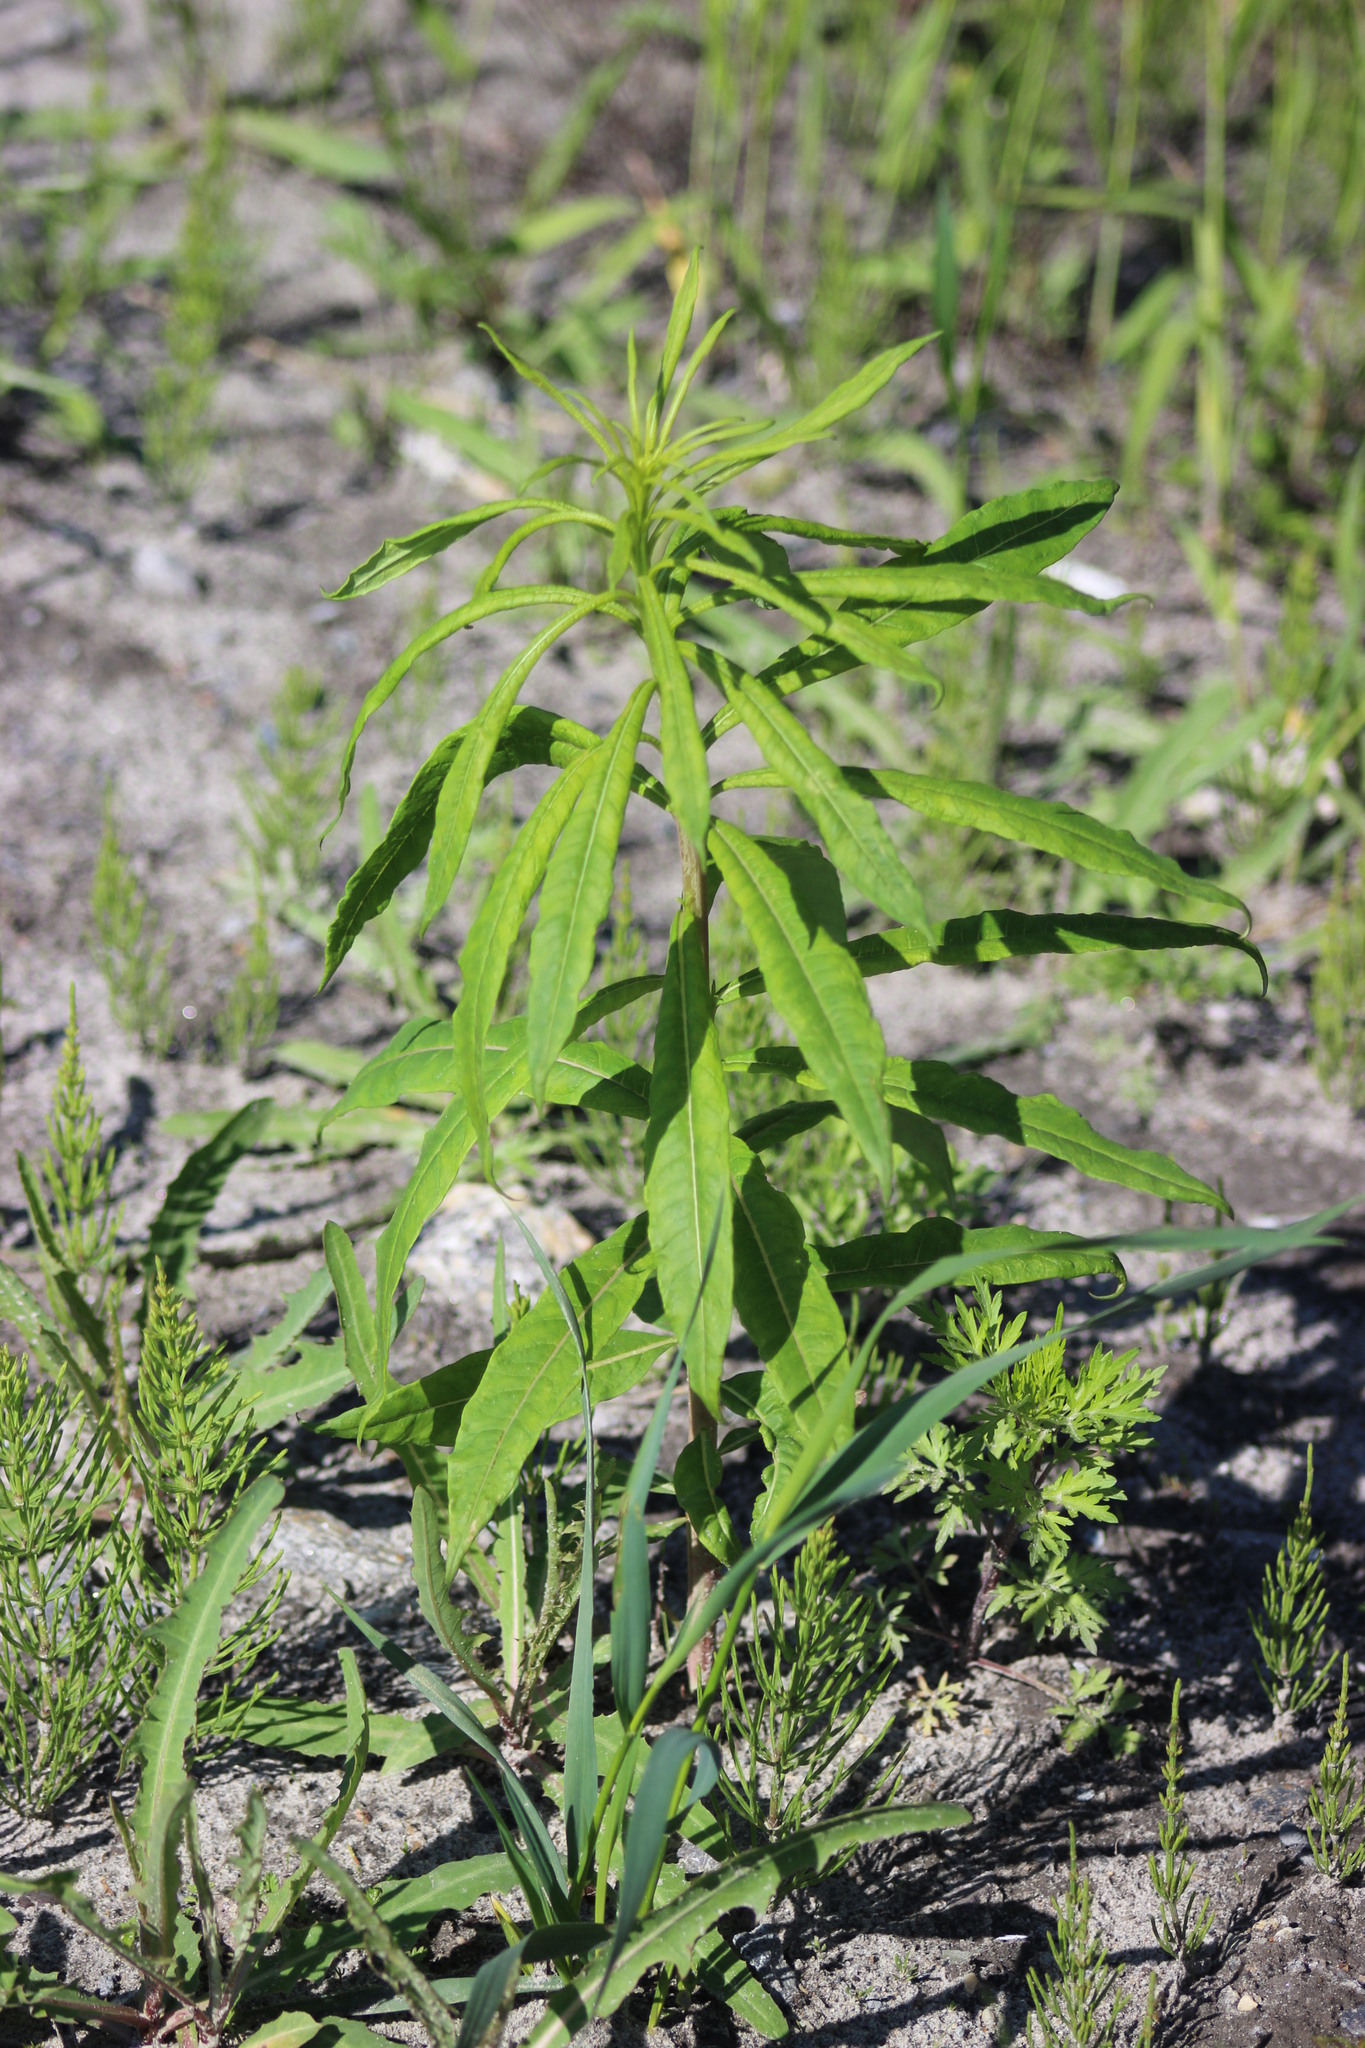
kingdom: Plantae
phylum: Tracheophyta
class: Magnoliopsida
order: Myrtales
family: Onagraceae
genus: Chamaenerion
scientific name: Chamaenerion angustifolium
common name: Fireweed
